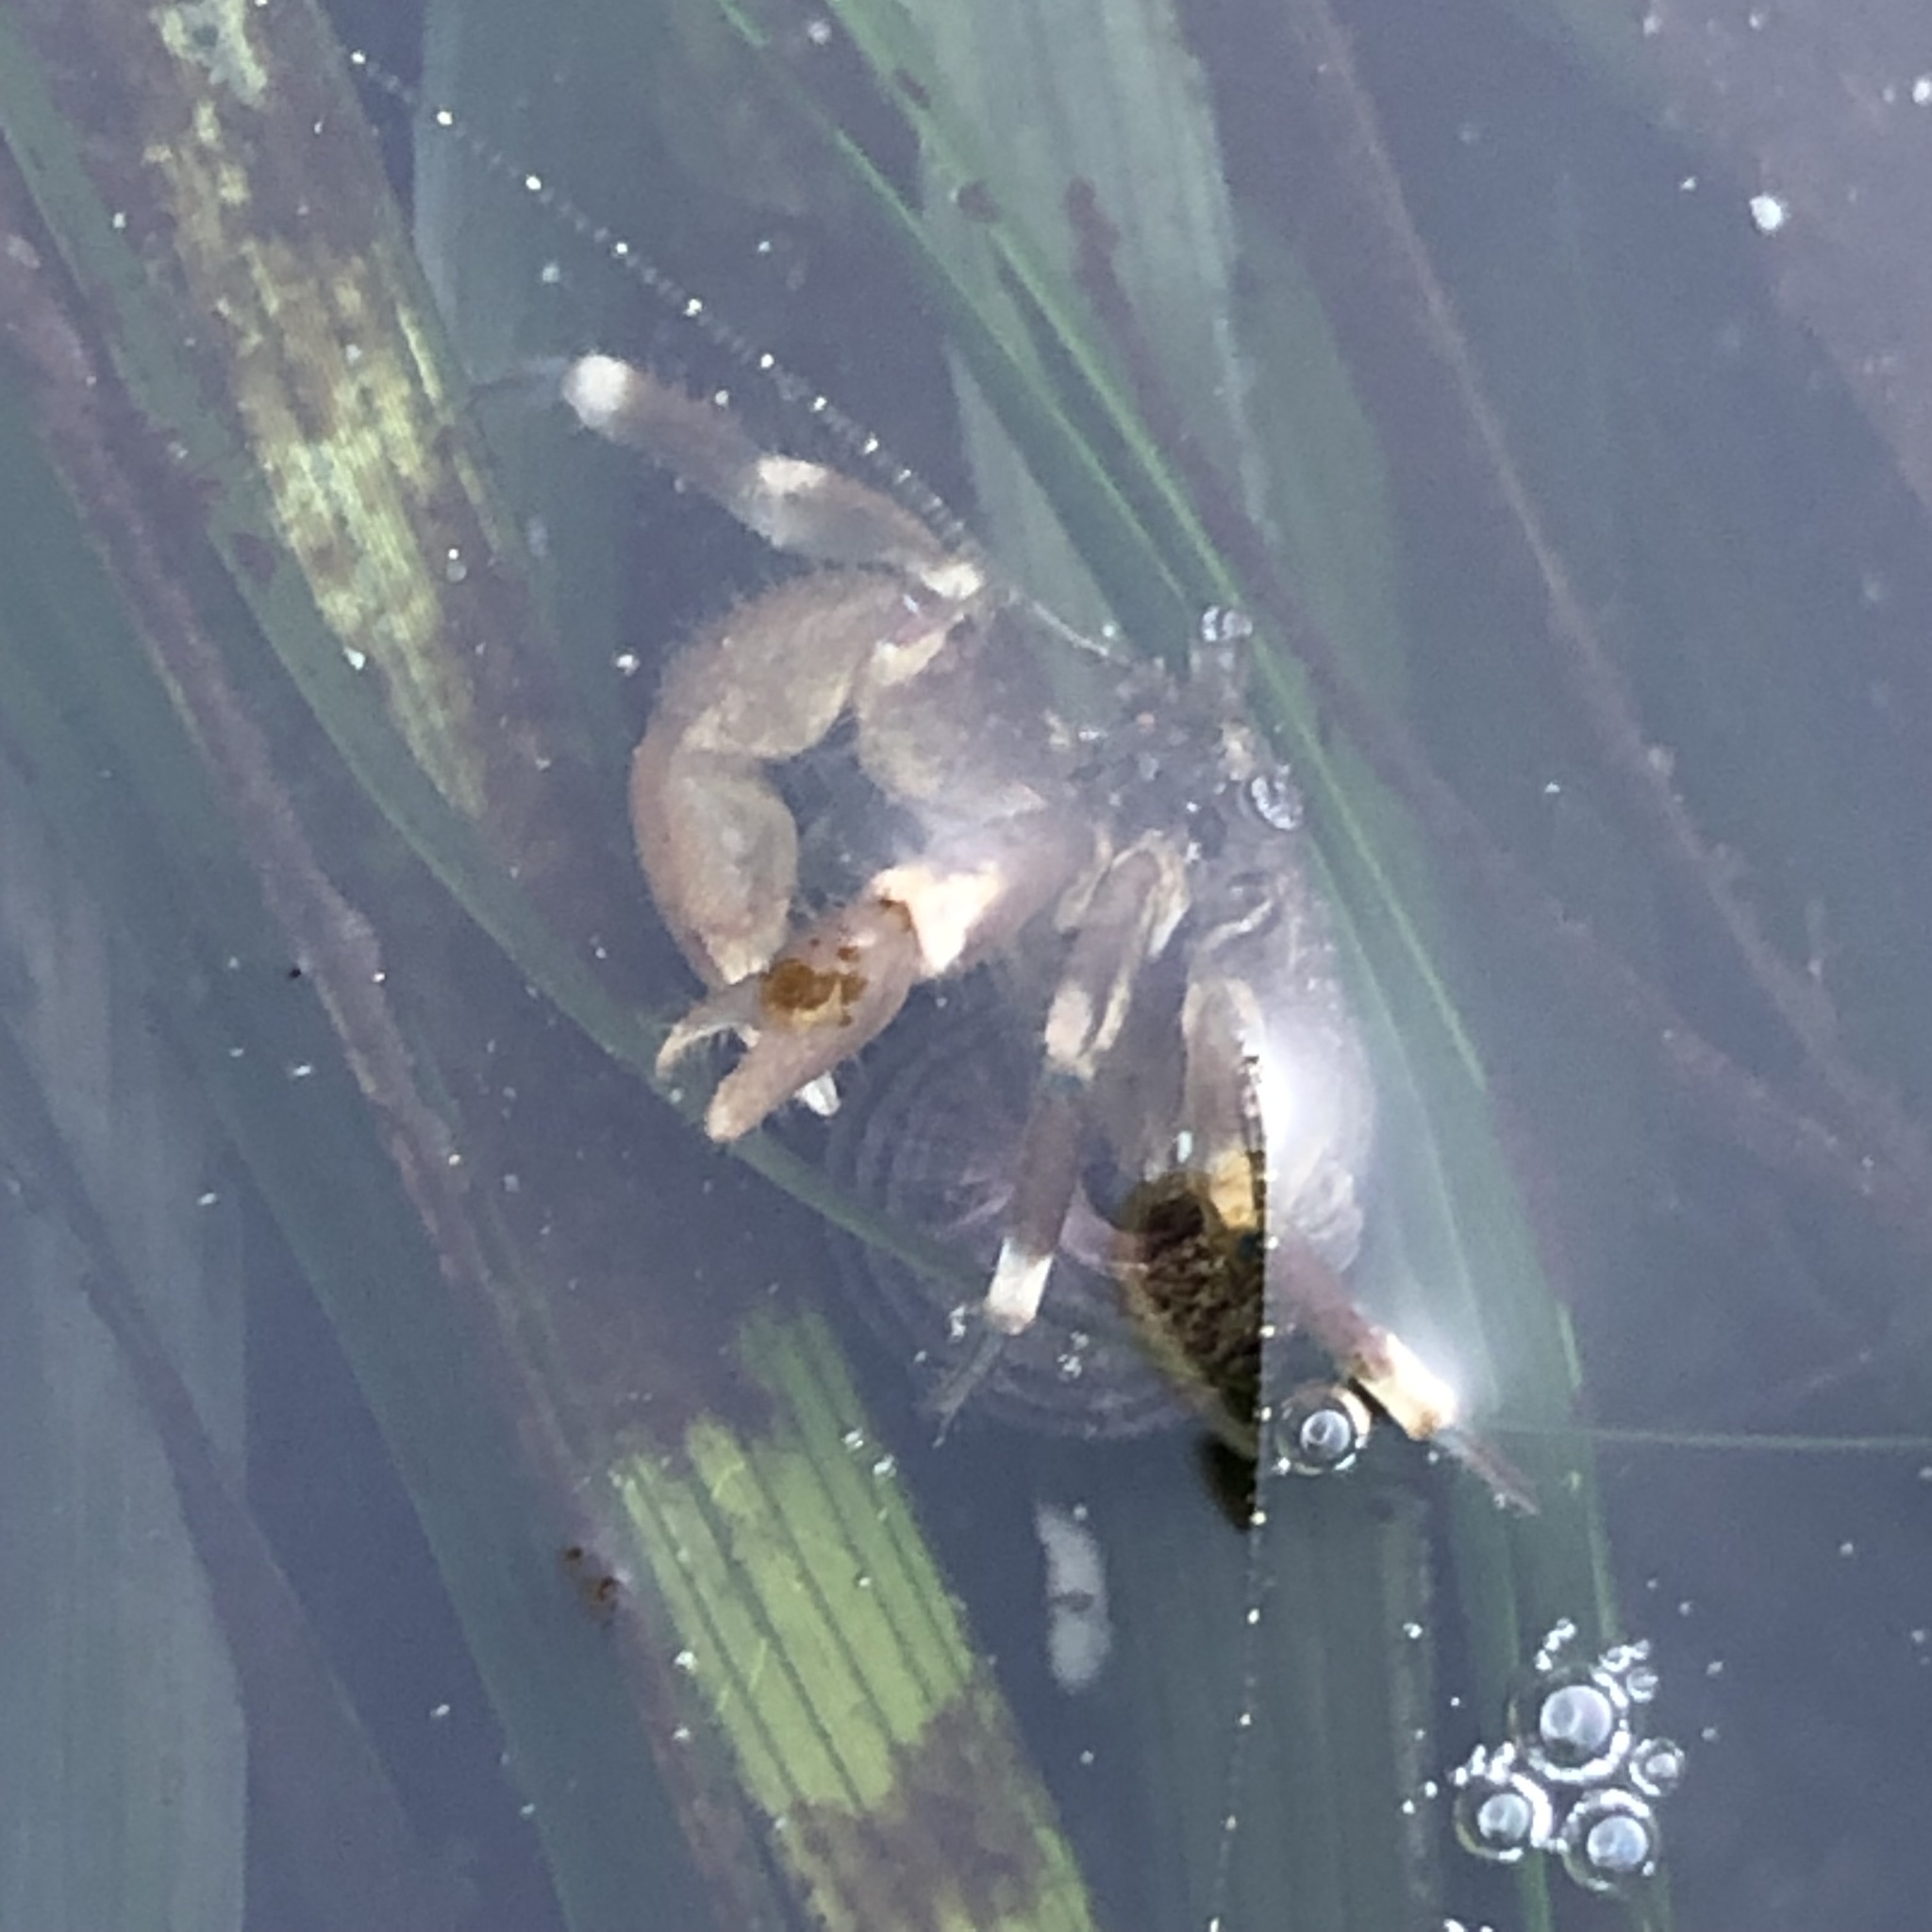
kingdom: Animalia
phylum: Arthropoda
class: Malacostraca
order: Decapoda
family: Paguridae
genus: Pagurus
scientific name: Pagurus hirsutiusculus
